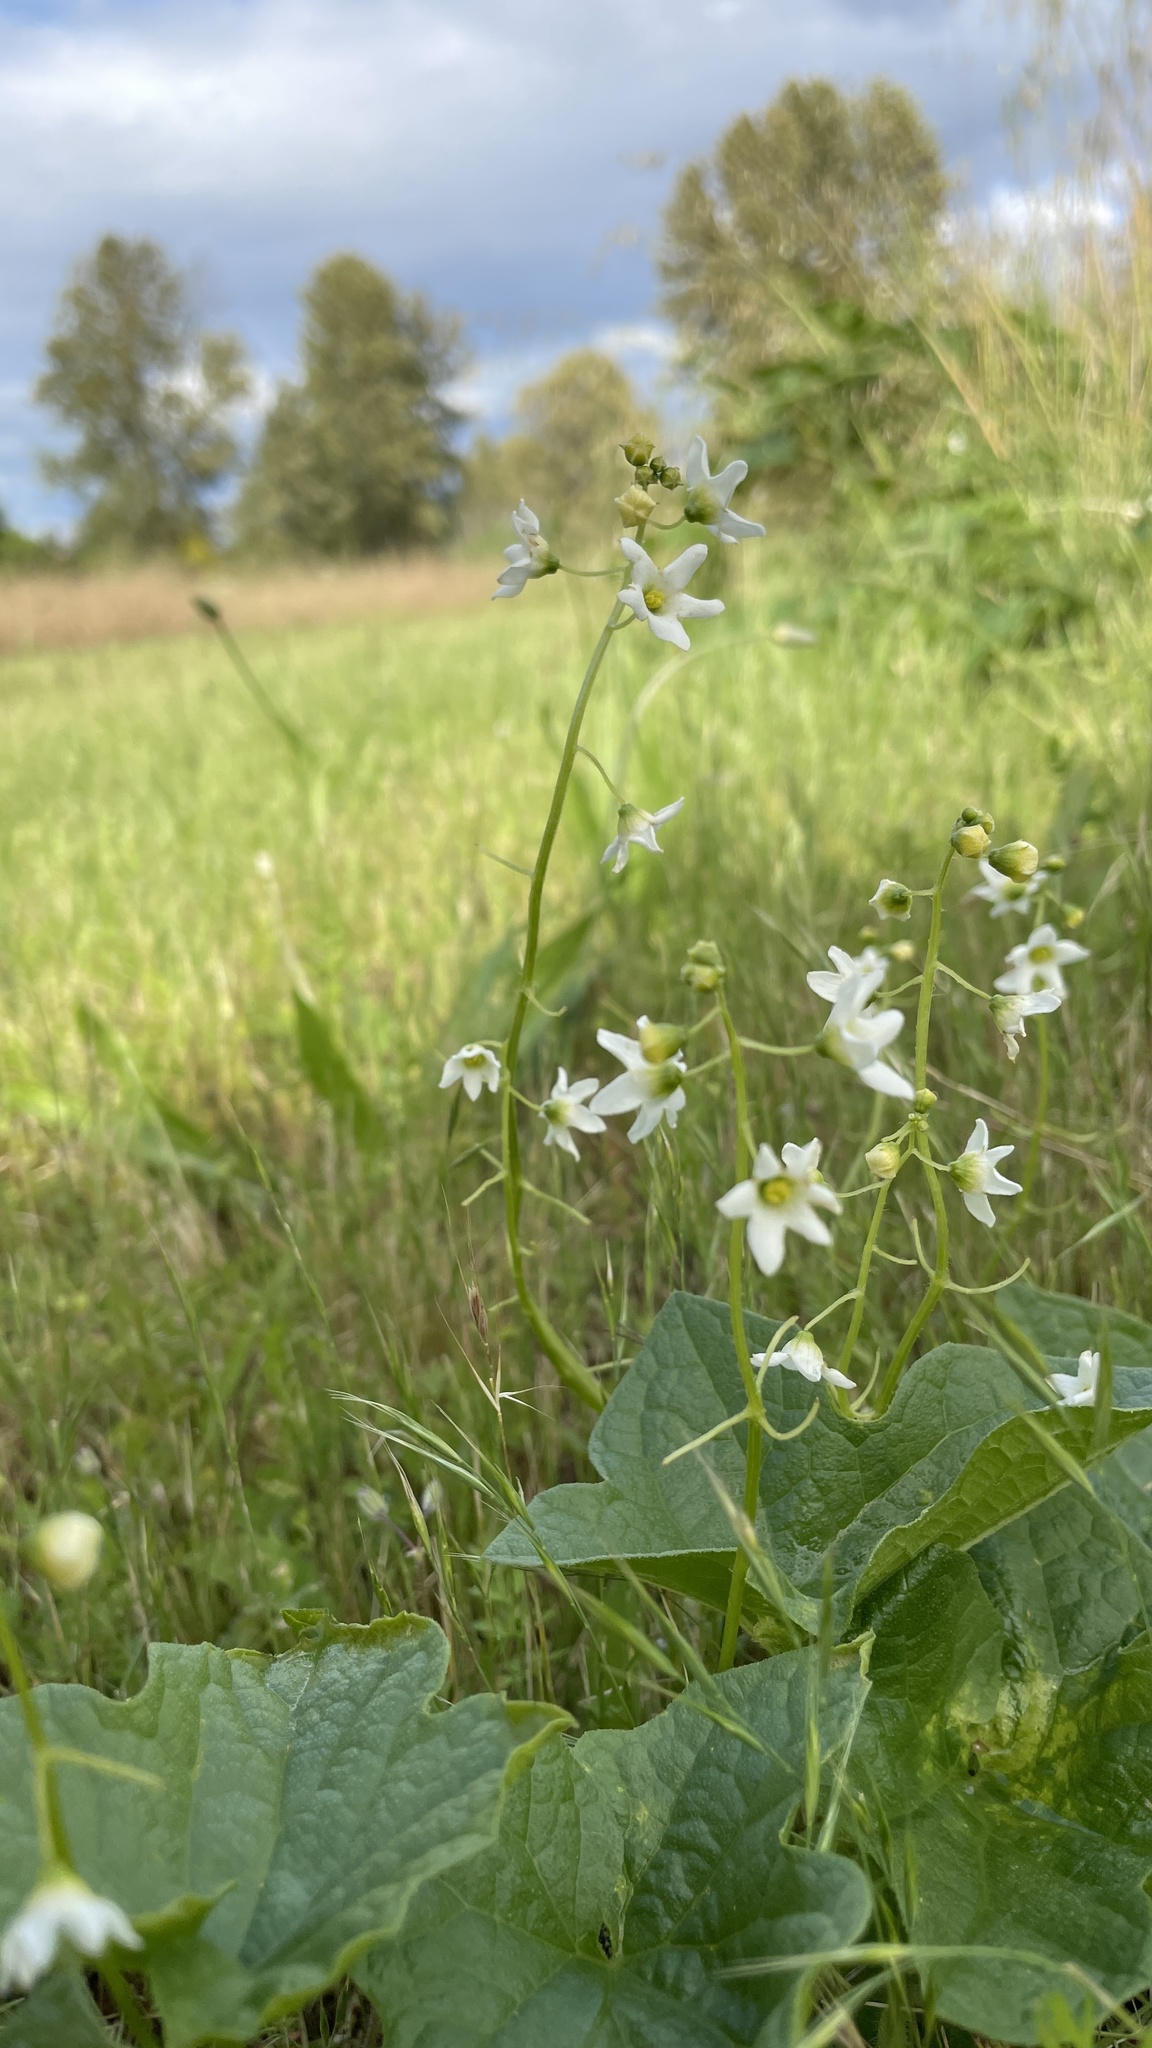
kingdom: Plantae
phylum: Tracheophyta
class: Magnoliopsida
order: Cucurbitales
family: Cucurbitaceae
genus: Marah
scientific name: Marah oregana
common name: Coastal manroot
